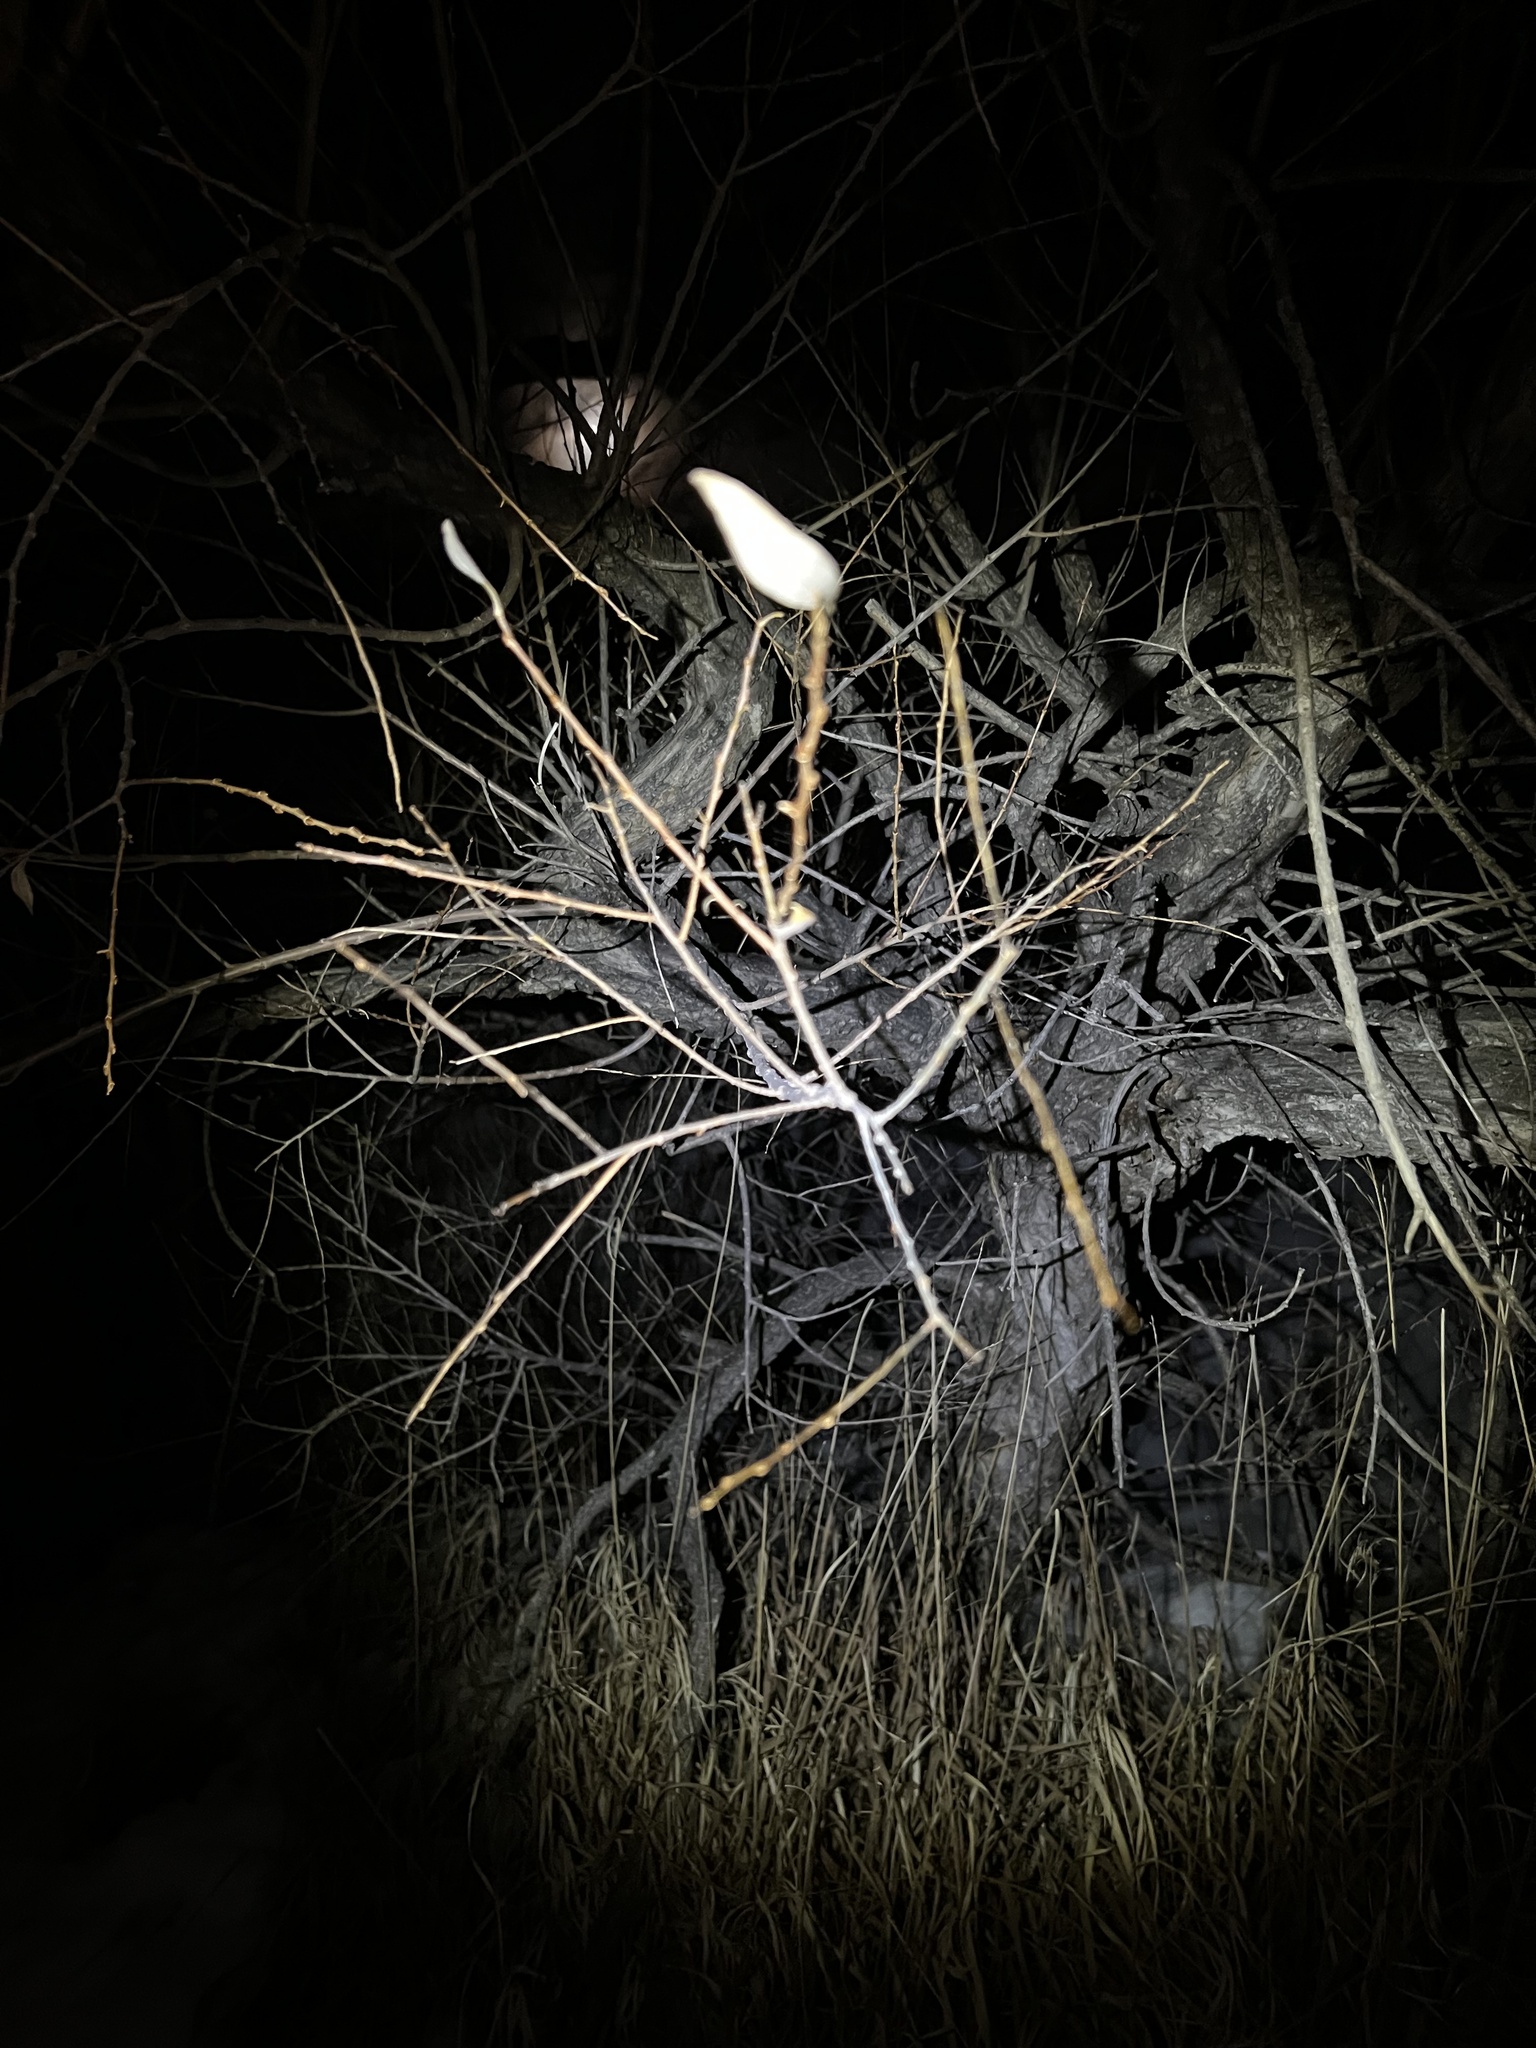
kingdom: Plantae
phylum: Tracheophyta
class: Magnoliopsida
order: Malpighiales
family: Salicaceae
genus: Salix
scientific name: Salix amygdaloides
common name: Peach leaf willow
